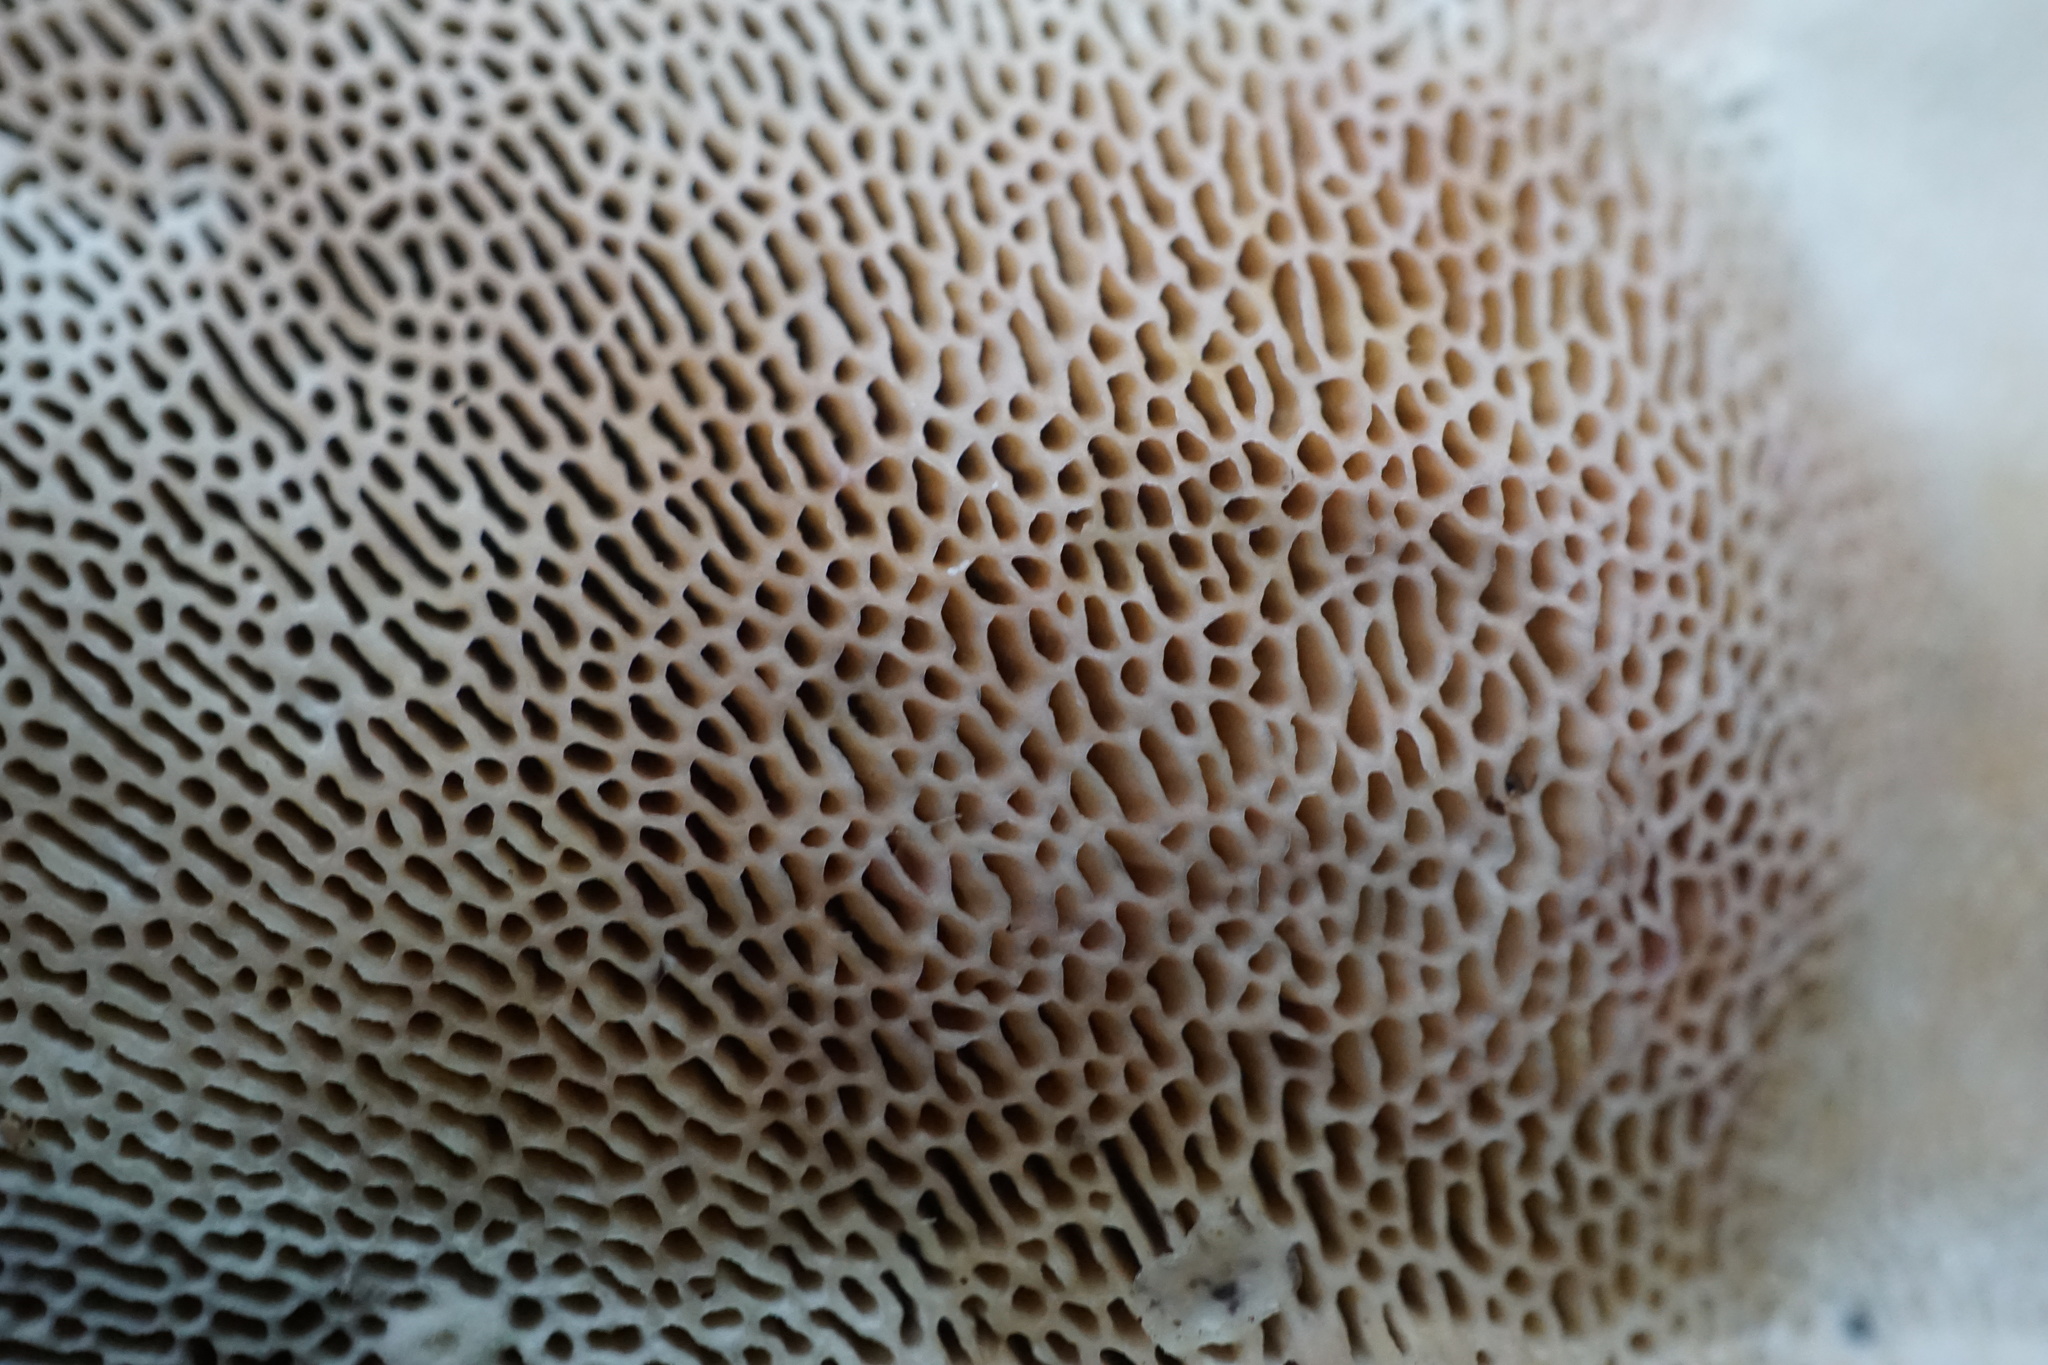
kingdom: Fungi
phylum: Basidiomycota
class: Agaricomycetes
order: Polyporales
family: Polyporaceae
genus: Daedaleopsis
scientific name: Daedaleopsis confragosa
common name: Blushing bracket
